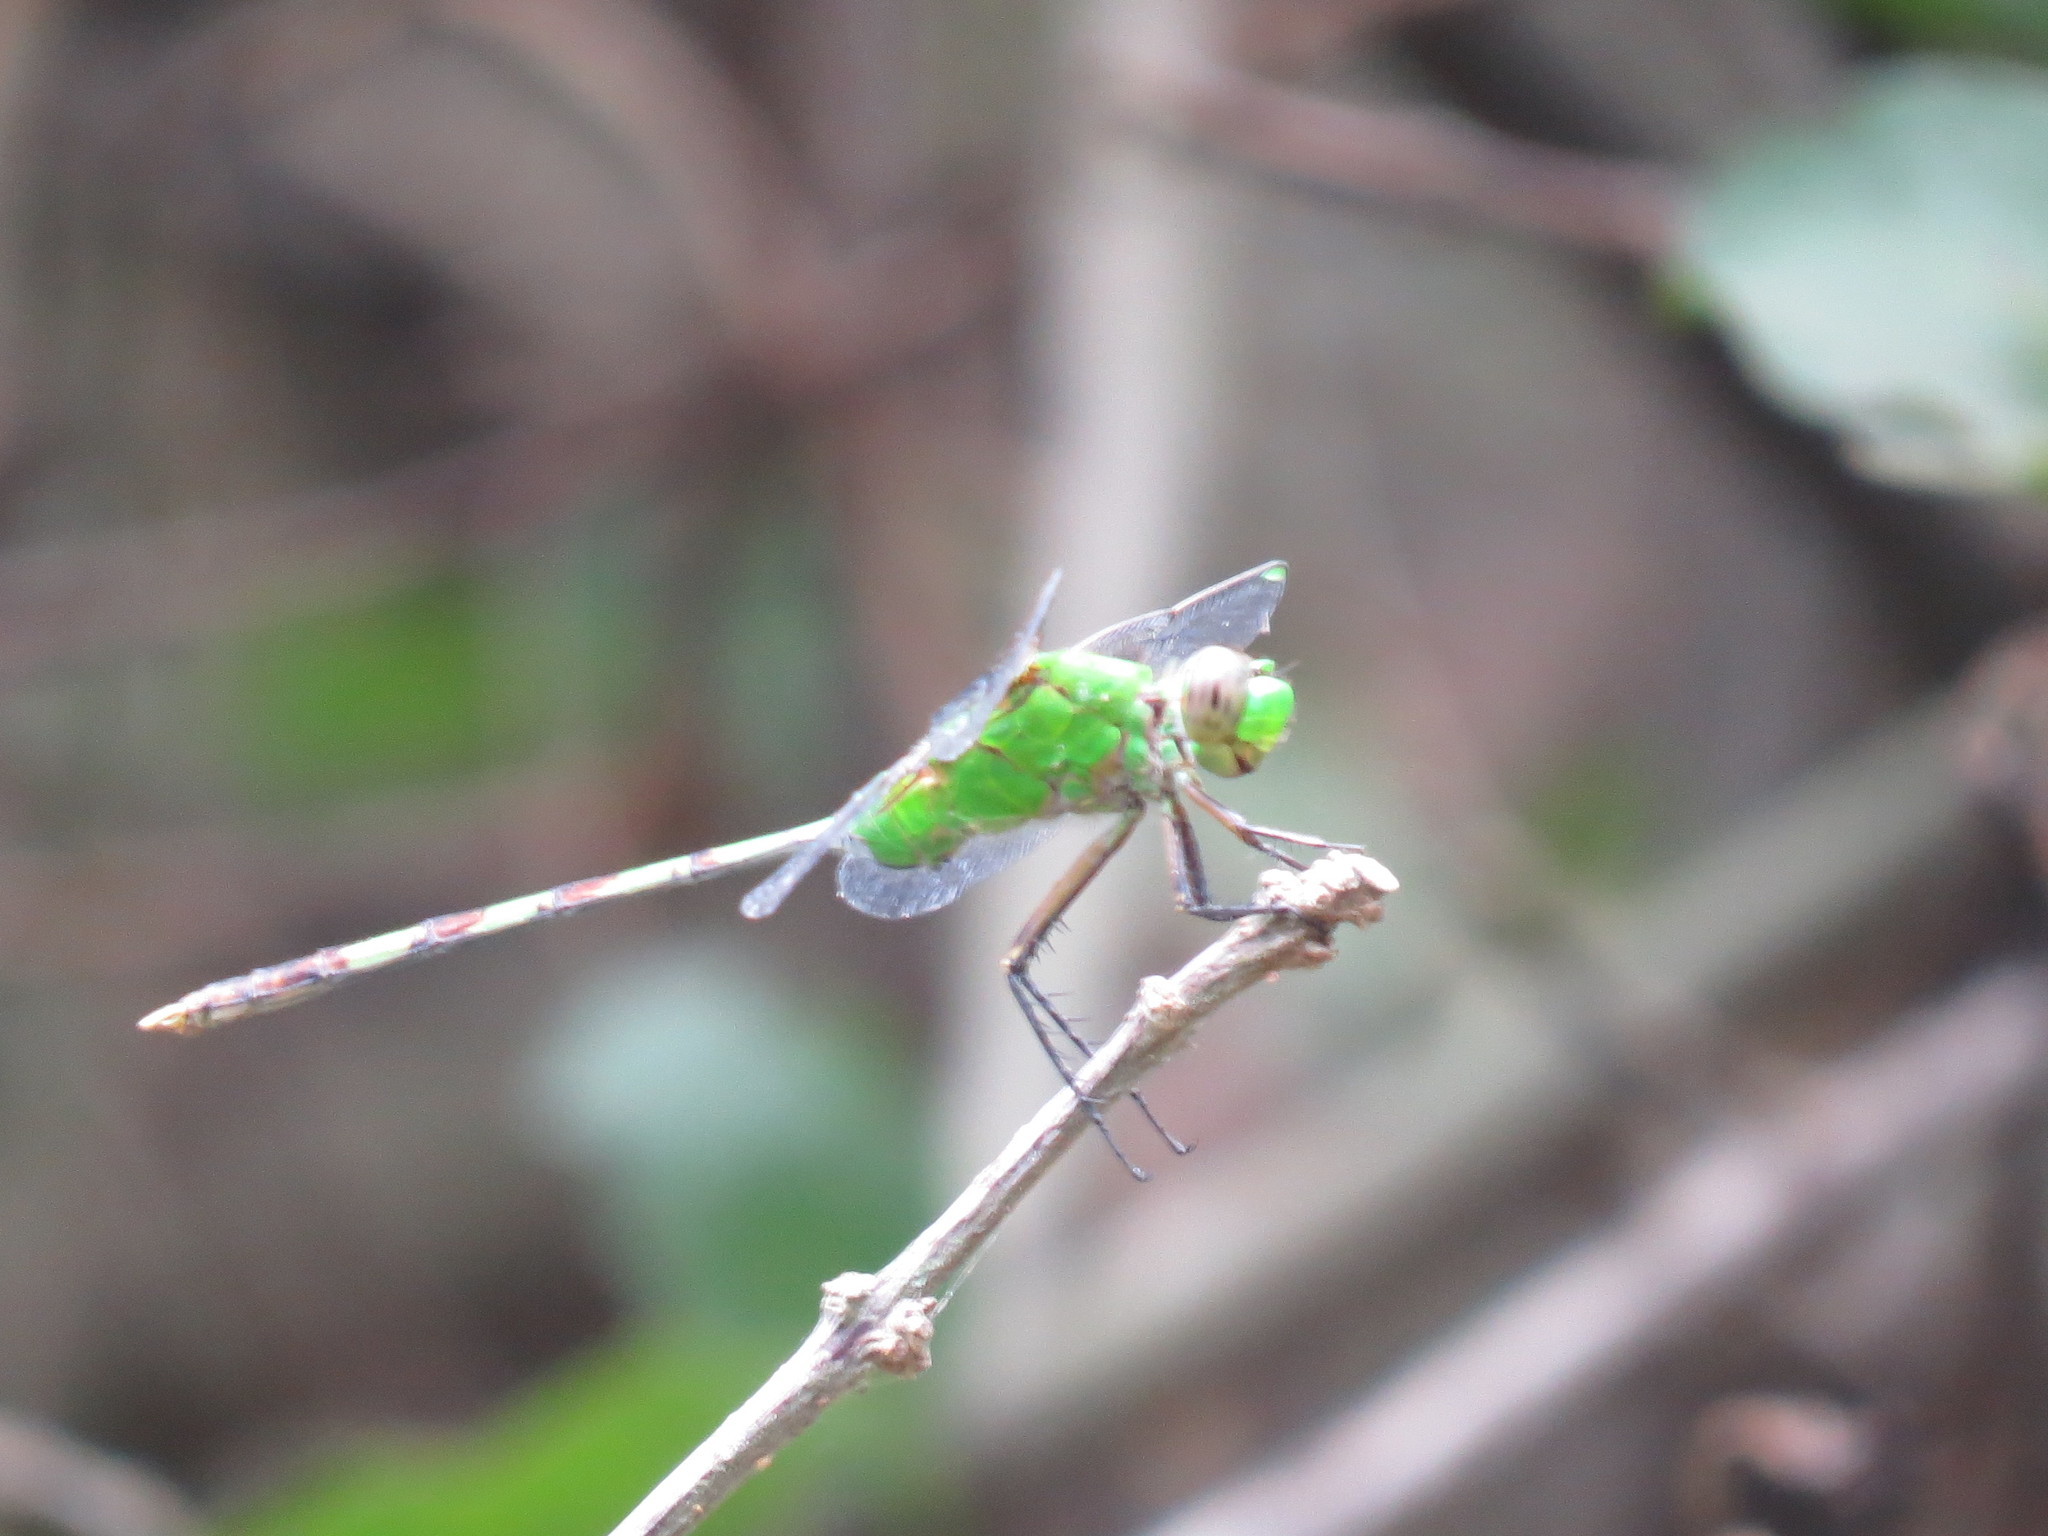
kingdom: Animalia
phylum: Arthropoda
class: Insecta
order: Odonata
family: Libellulidae
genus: Erythemis
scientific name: Erythemis vesiculosa
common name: Great pondhawk
